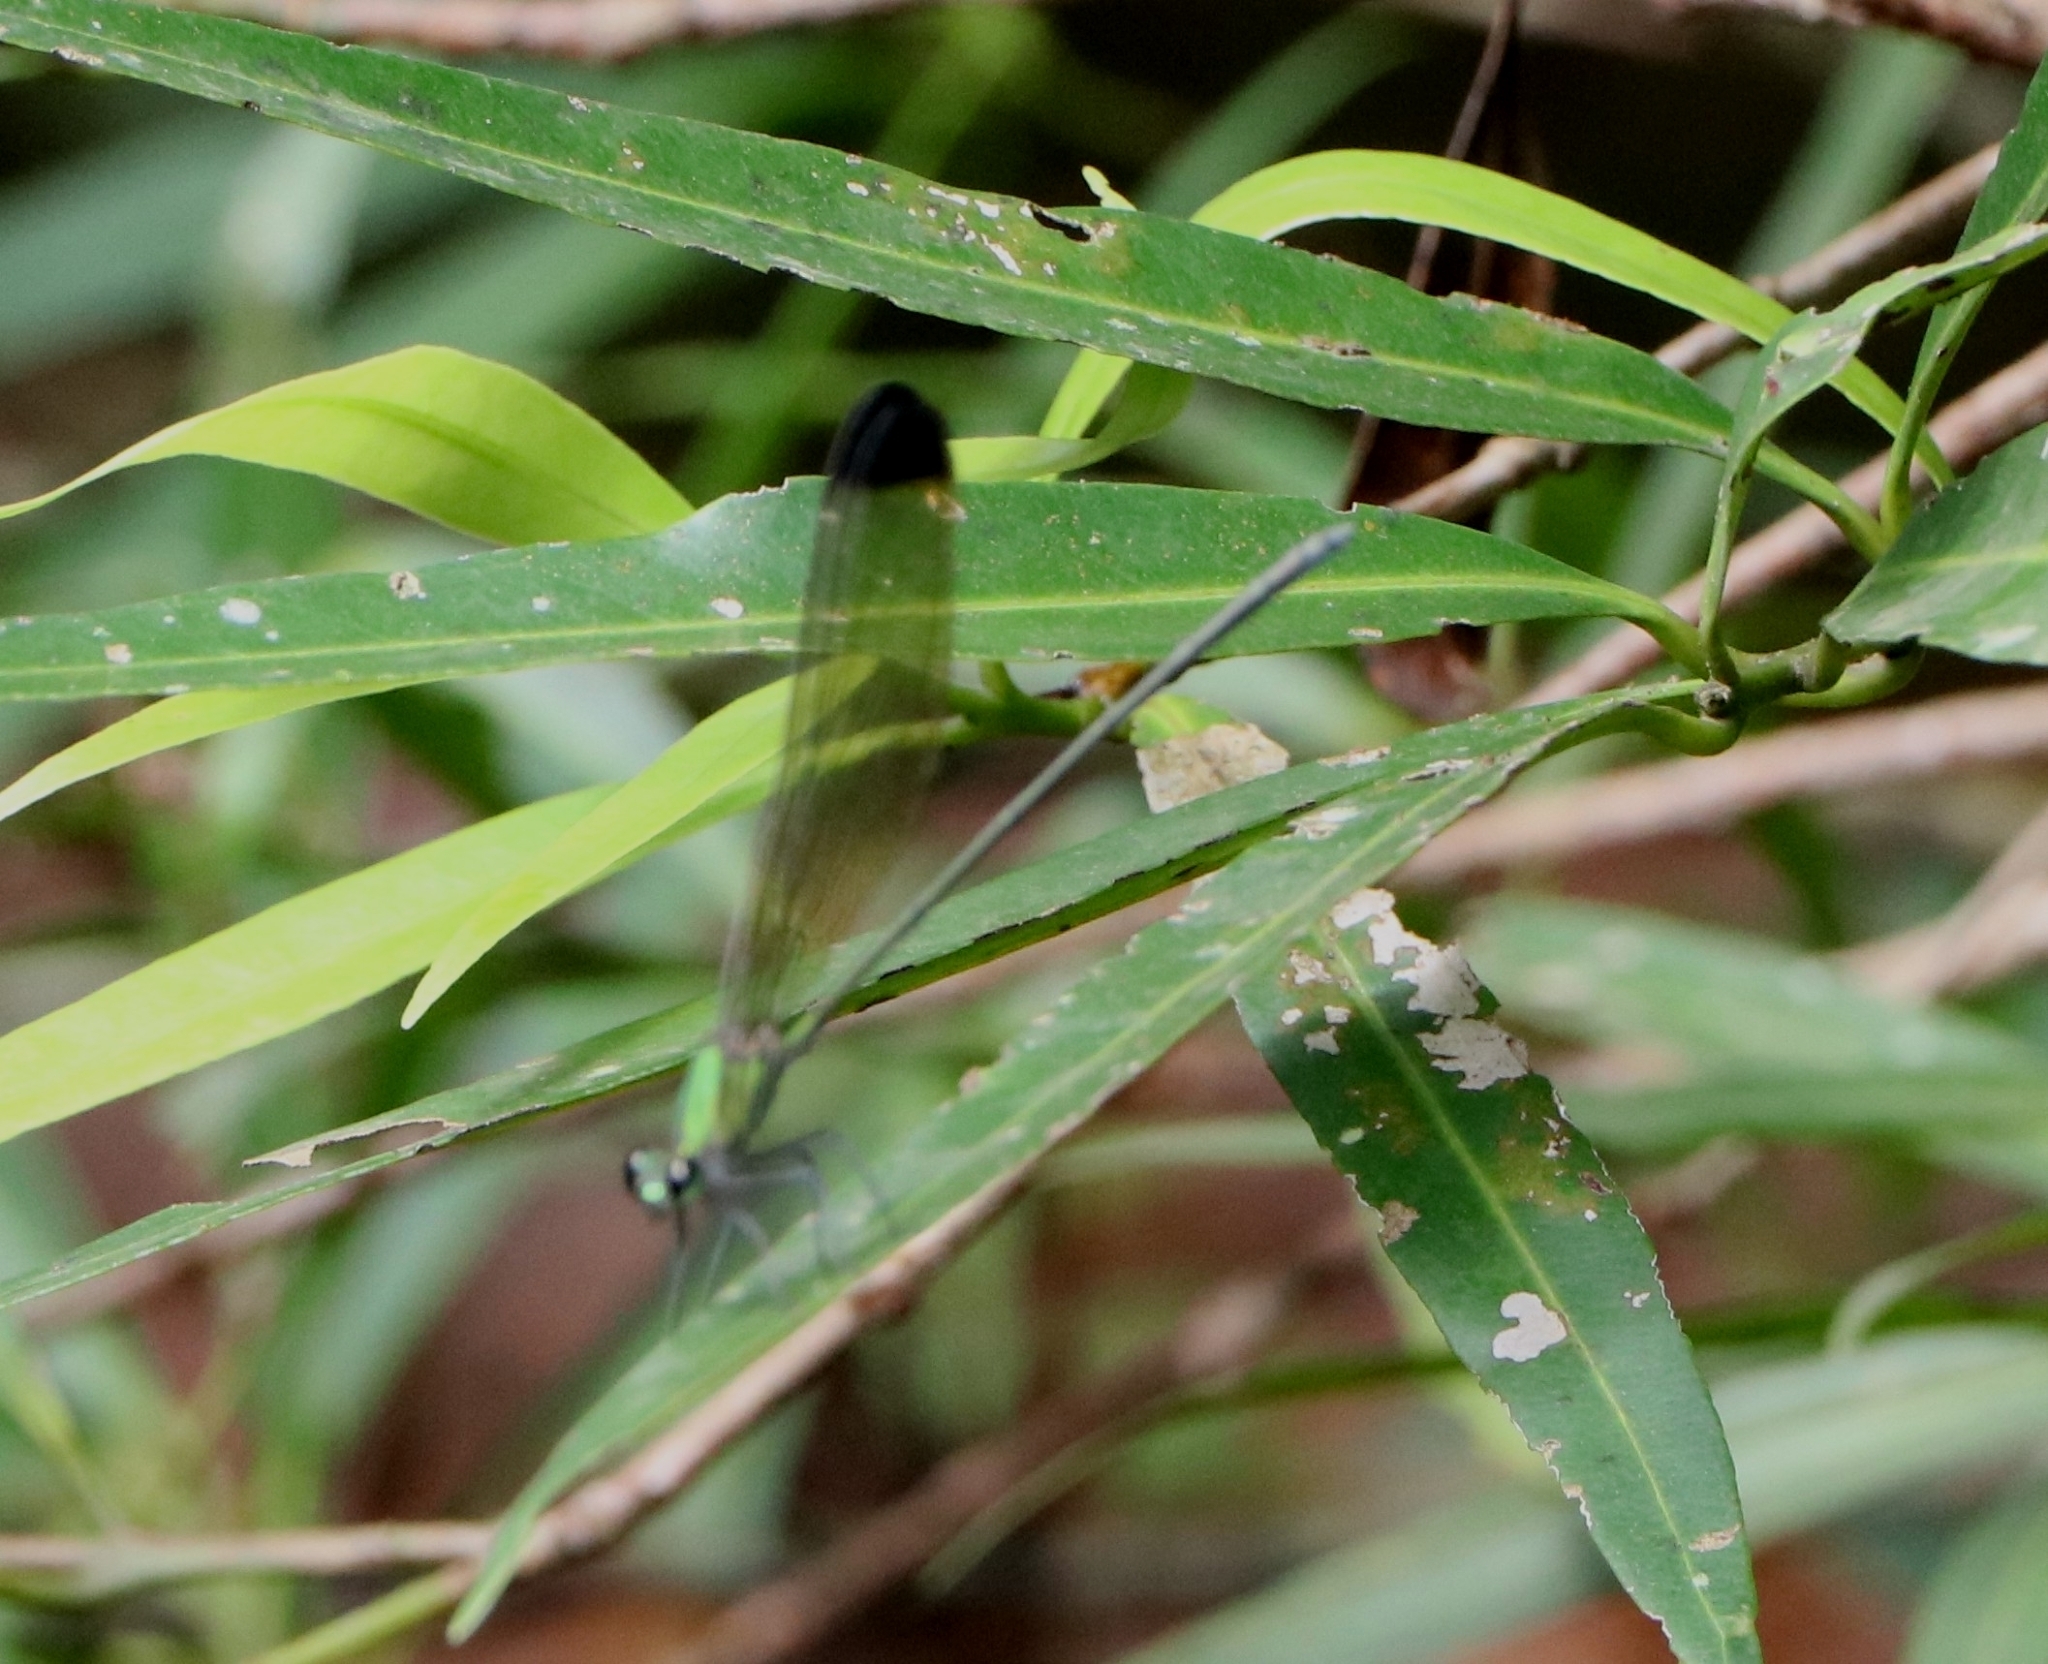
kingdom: Animalia
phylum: Arthropoda
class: Insecta
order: Odonata
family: Calopterygidae
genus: Vestalis
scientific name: Vestalis apicalis
